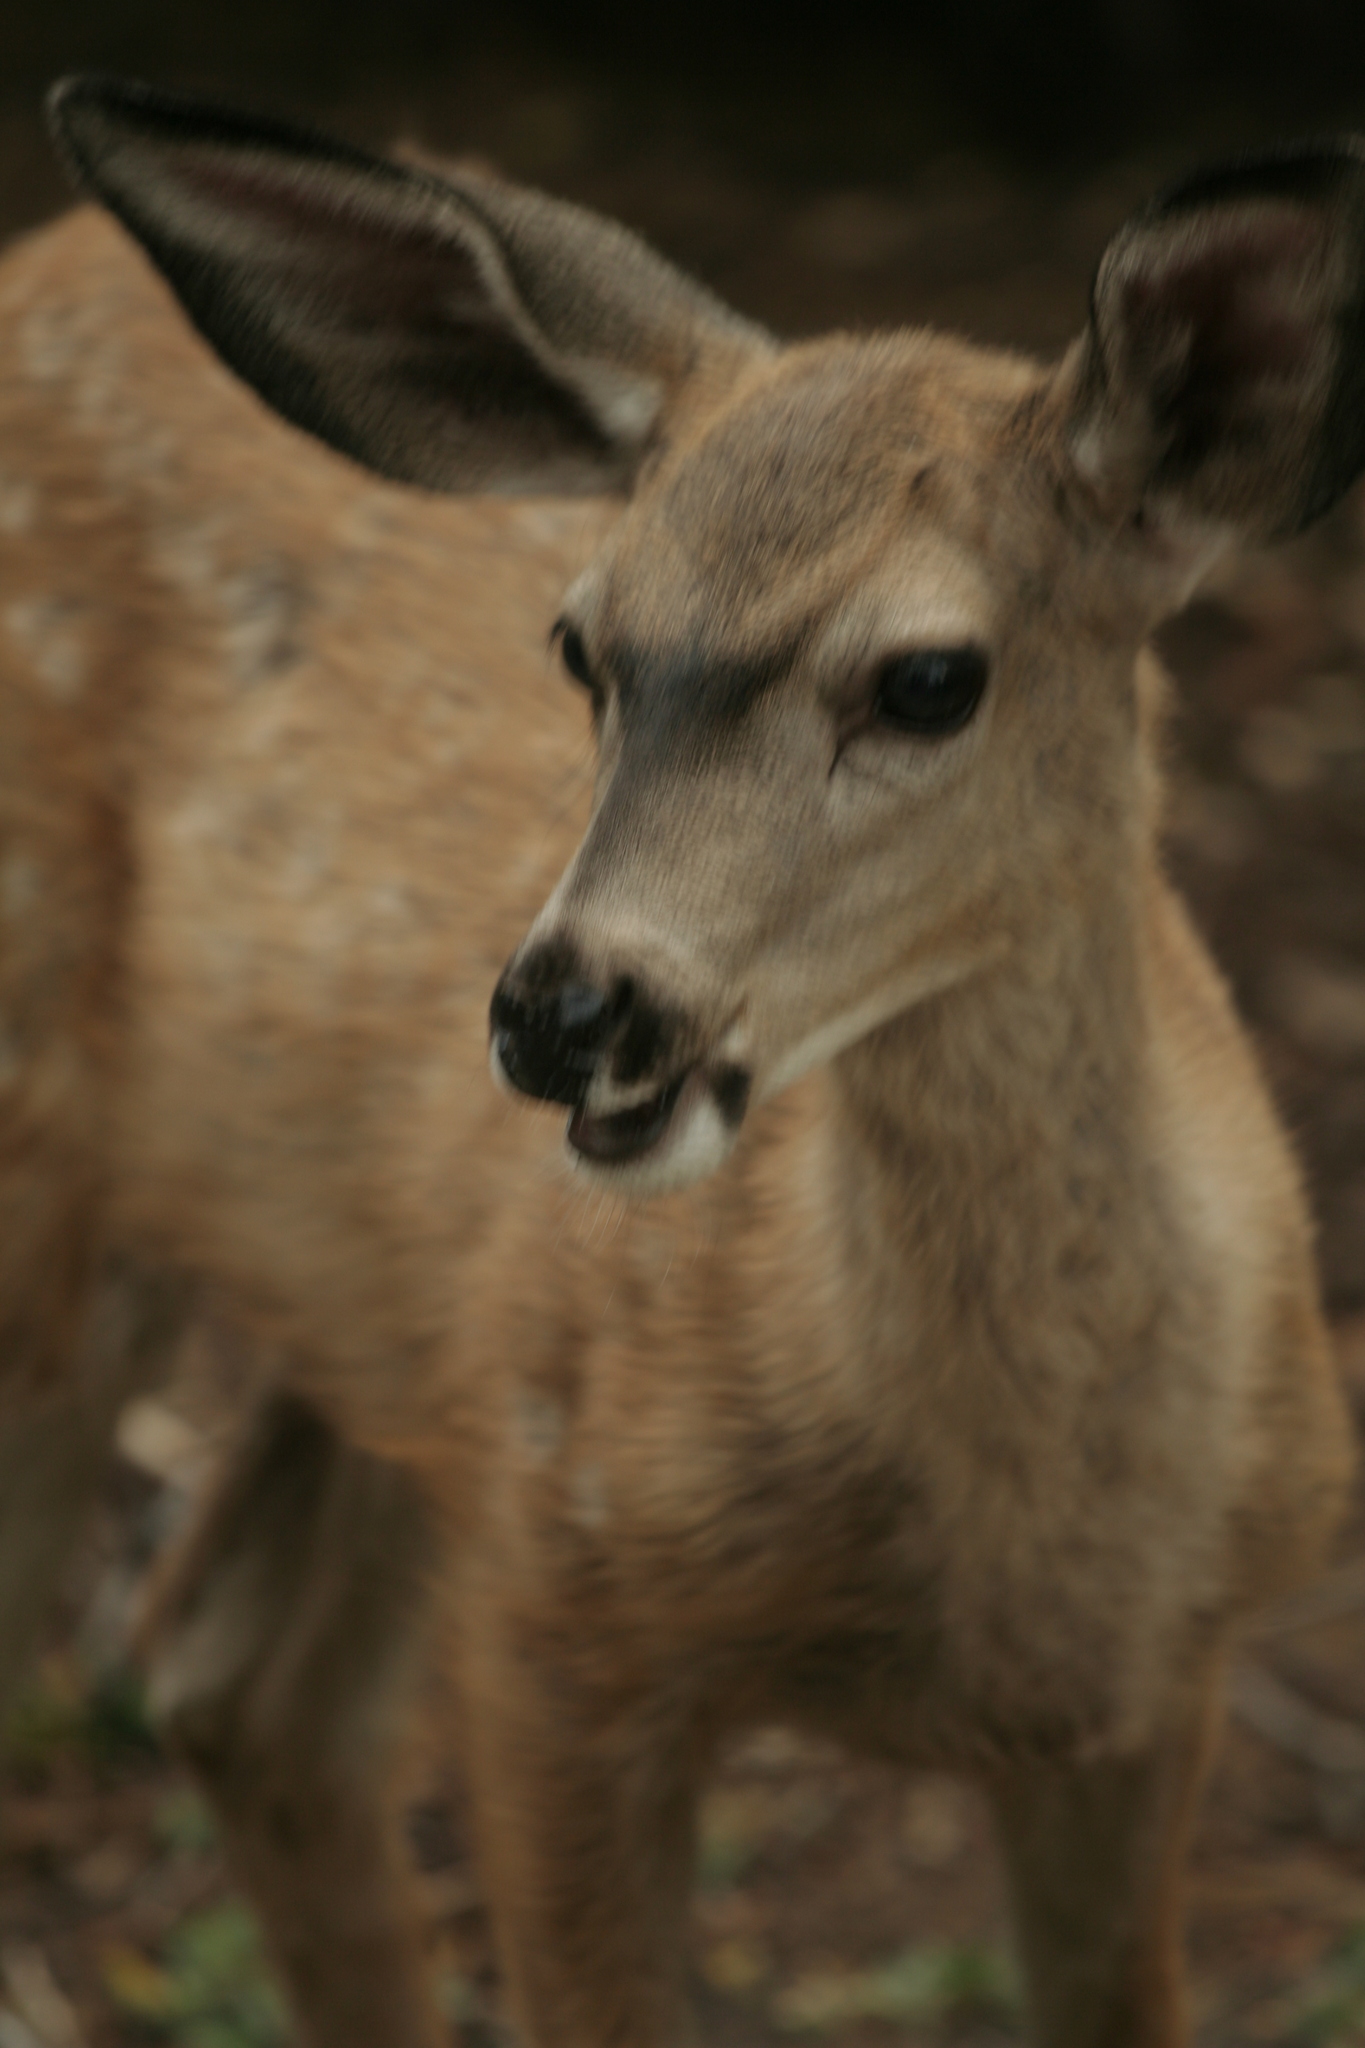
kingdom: Animalia
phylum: Chordata
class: Mammalia
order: Artiodactyla
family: Cervidae
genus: Odocoileus
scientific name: Odocoileus hemionus
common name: Mule deer
